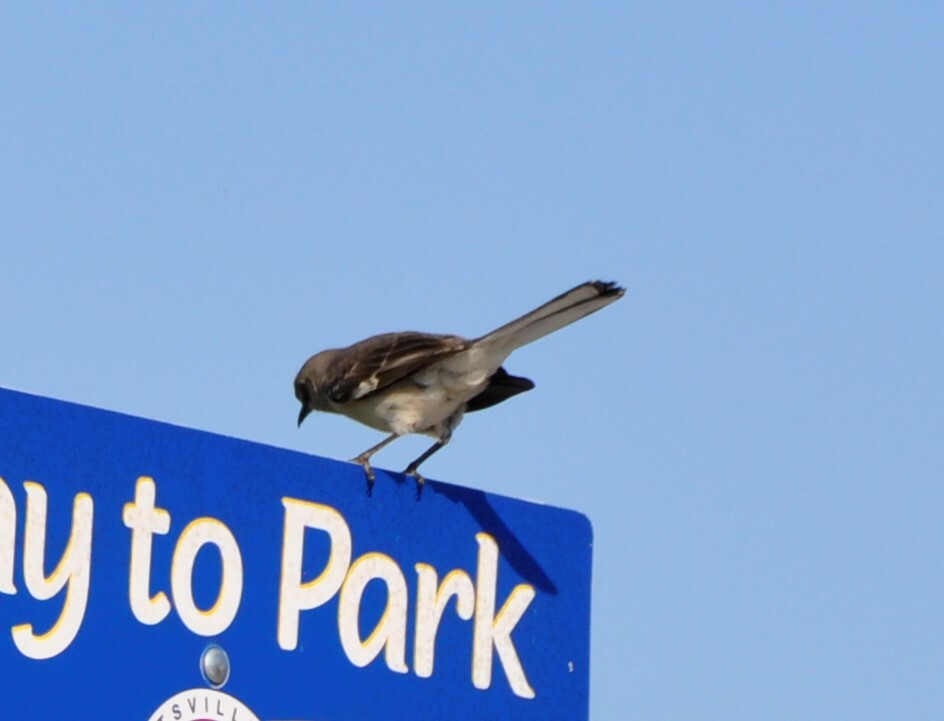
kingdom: Animalia
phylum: Chordata
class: Aves
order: Passeriformes
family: Mimidae
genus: Mimus
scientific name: Mimus polyglottos
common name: Northern mockingbird
